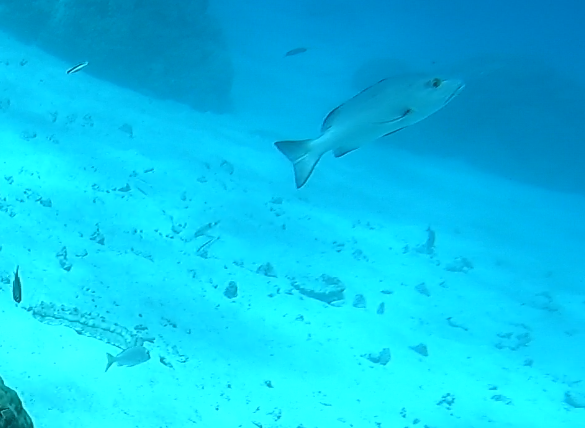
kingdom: Animalia
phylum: Chordata
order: Perciformes
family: Lutjanidae
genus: Lutjanus
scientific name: Lutjanus bohar
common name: Red bass
